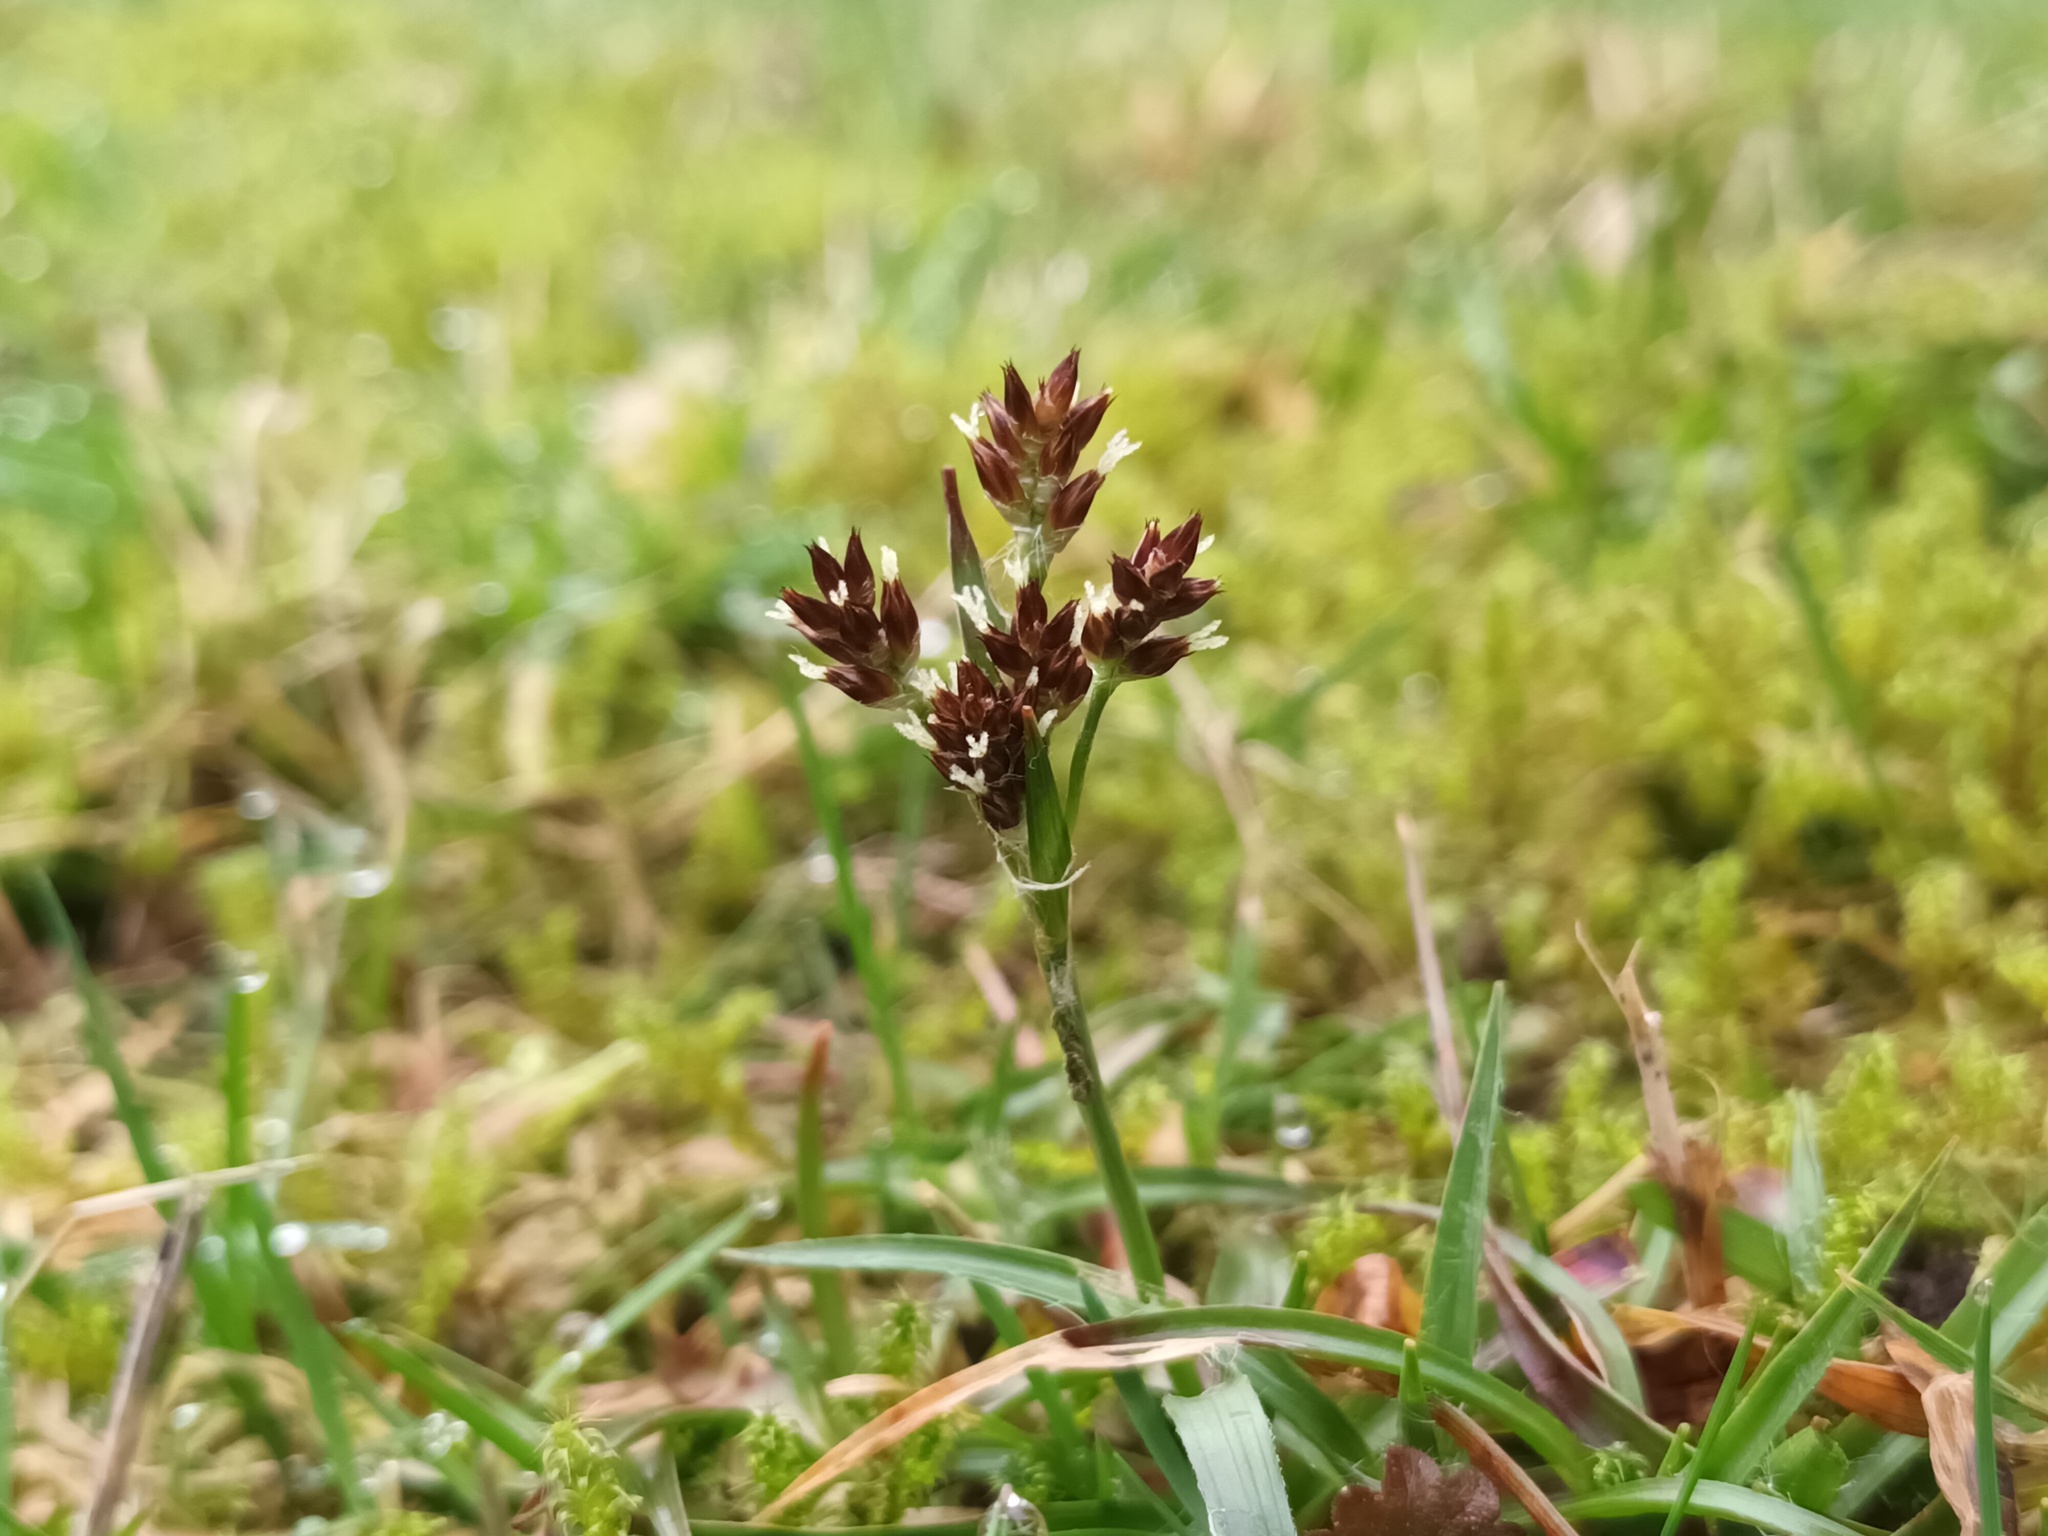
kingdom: Plantae
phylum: Tracheophyta
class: Liliopsida
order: Poales
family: Juncaceae
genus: Luzula
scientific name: Luzula campestris
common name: Field wood-rush
